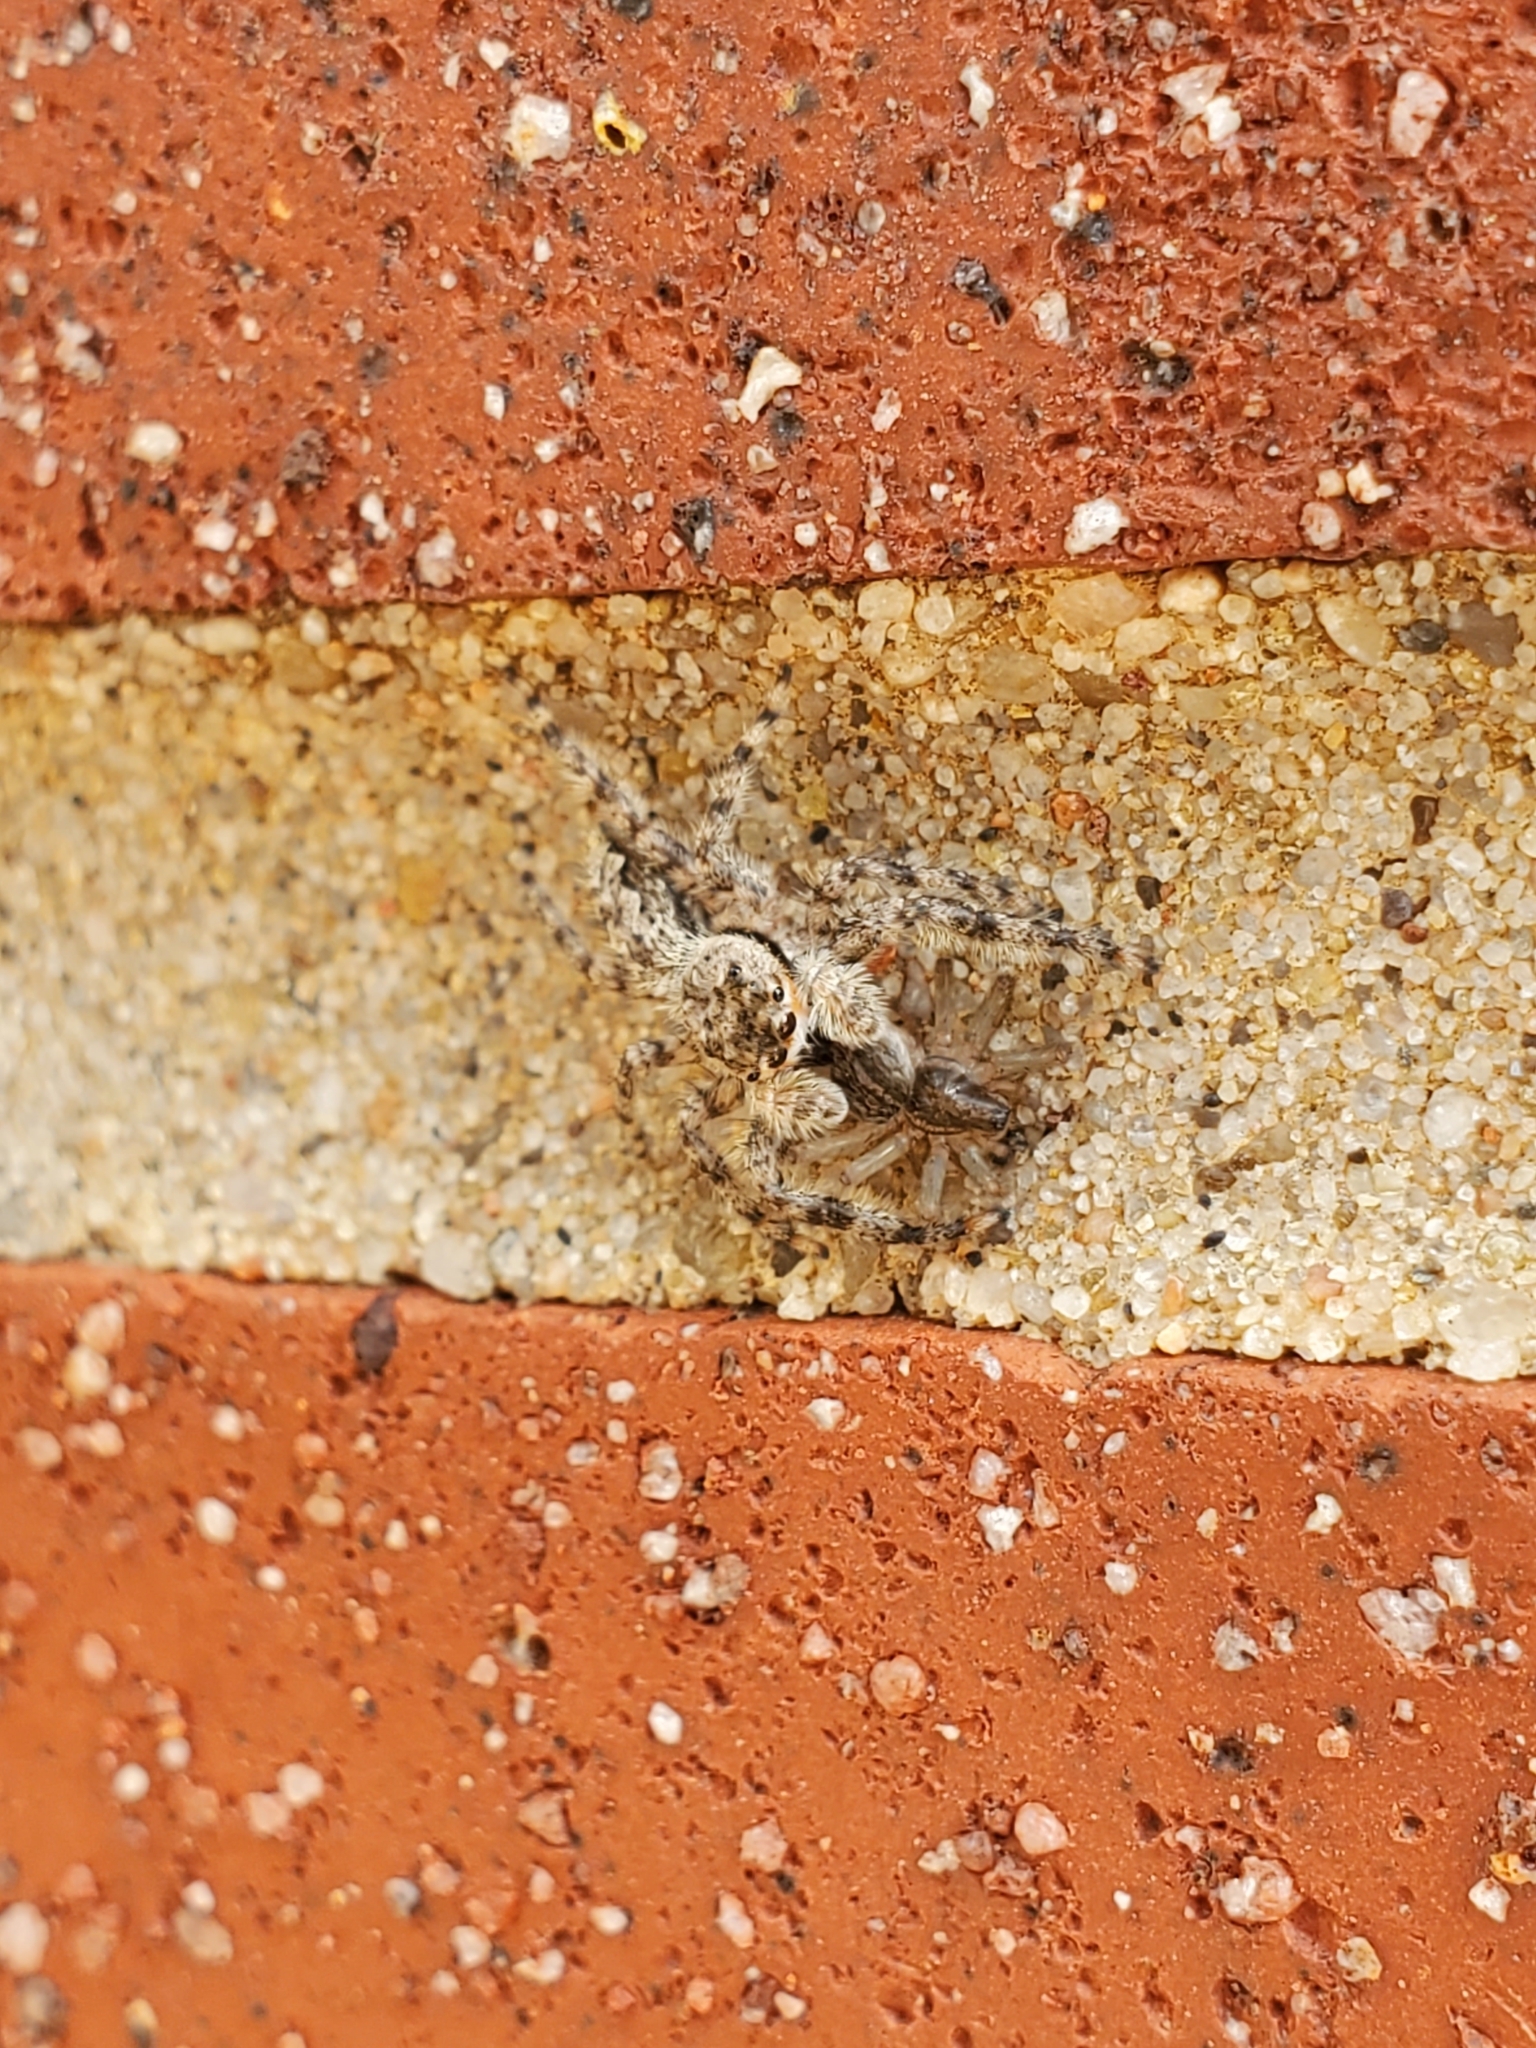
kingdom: Animalia
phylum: Arthropoda
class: Arachnida
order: Araneae
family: Salticidae
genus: Platycryptus
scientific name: Platycryptus undatus
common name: Tan jumping spider
